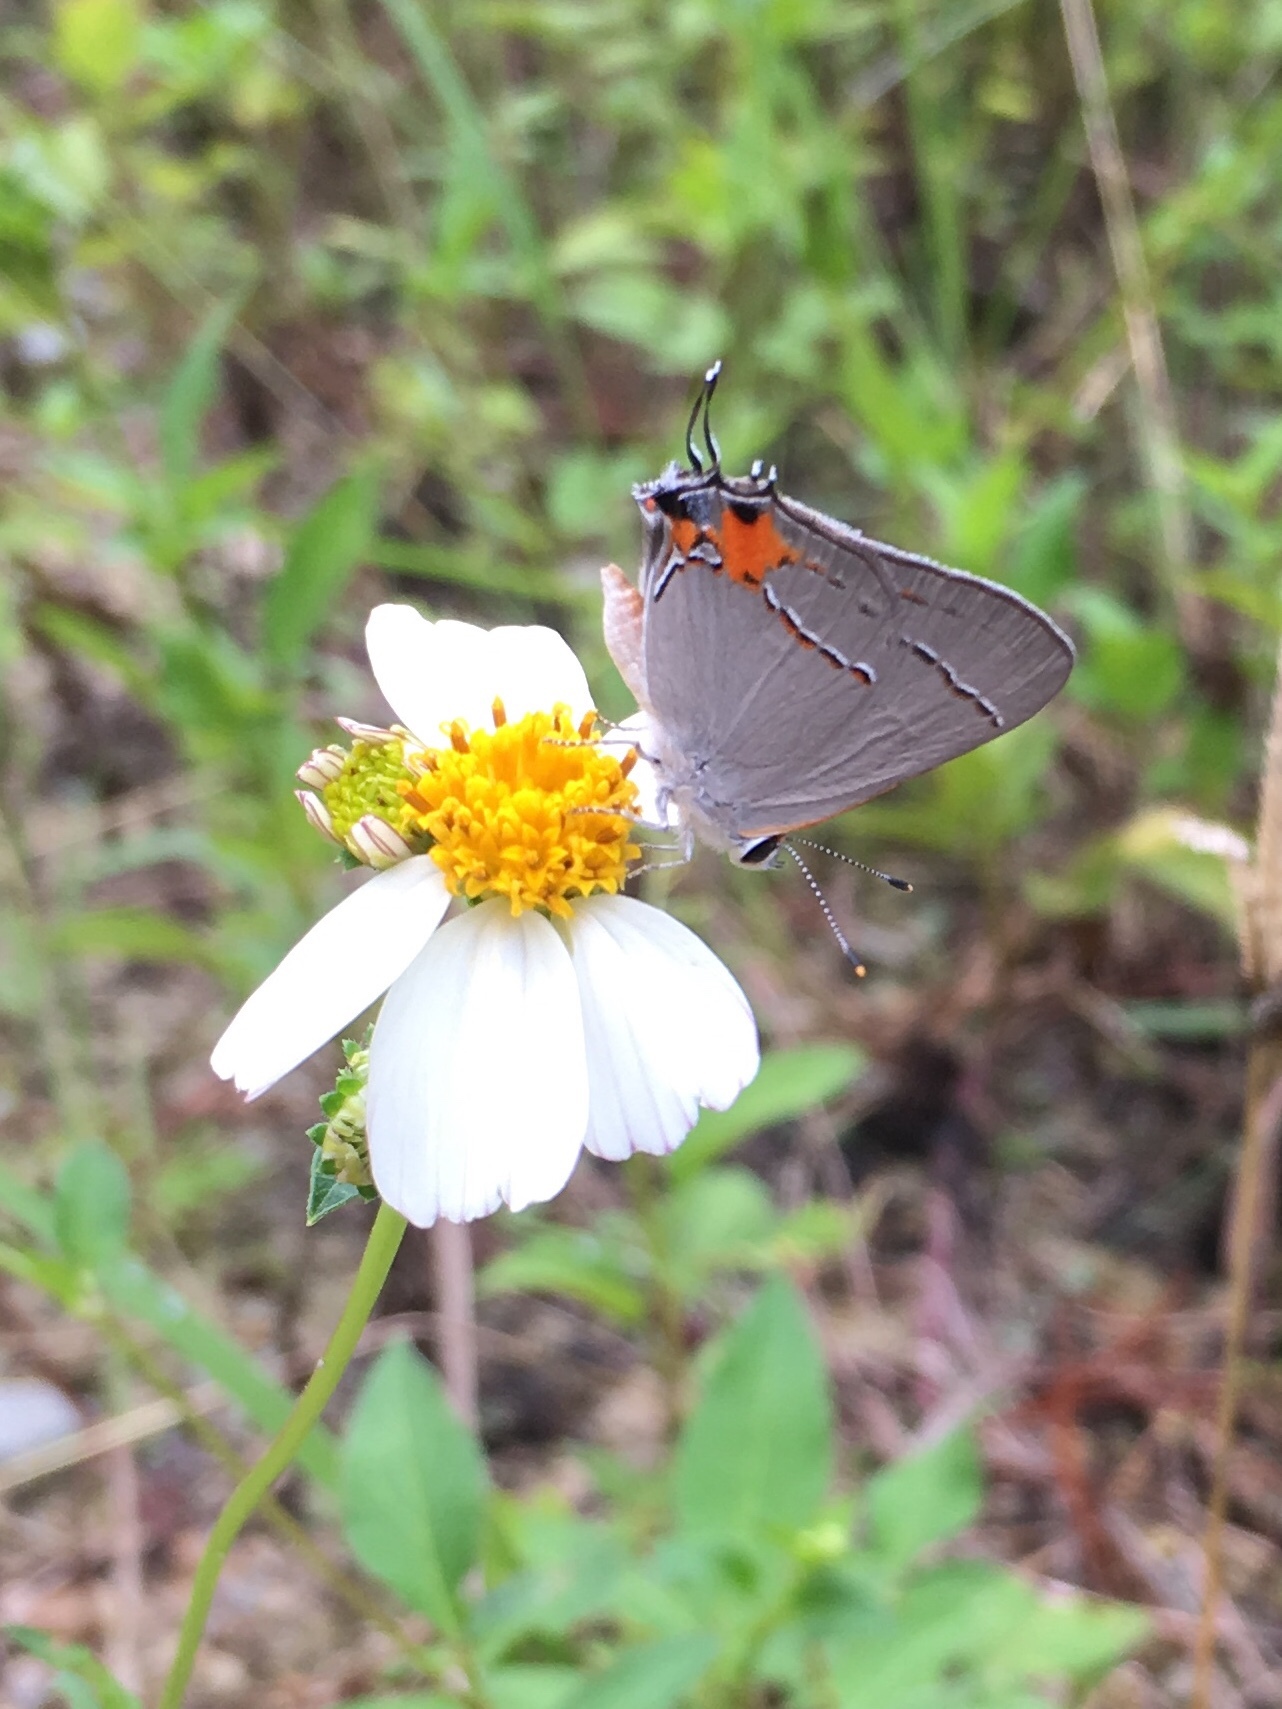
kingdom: Animalia
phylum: Arthropoda
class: Insecta
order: Lepidoptera
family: Lycaenidae
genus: Strymon
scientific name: Strymon melinus
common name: Gray hairstreak
